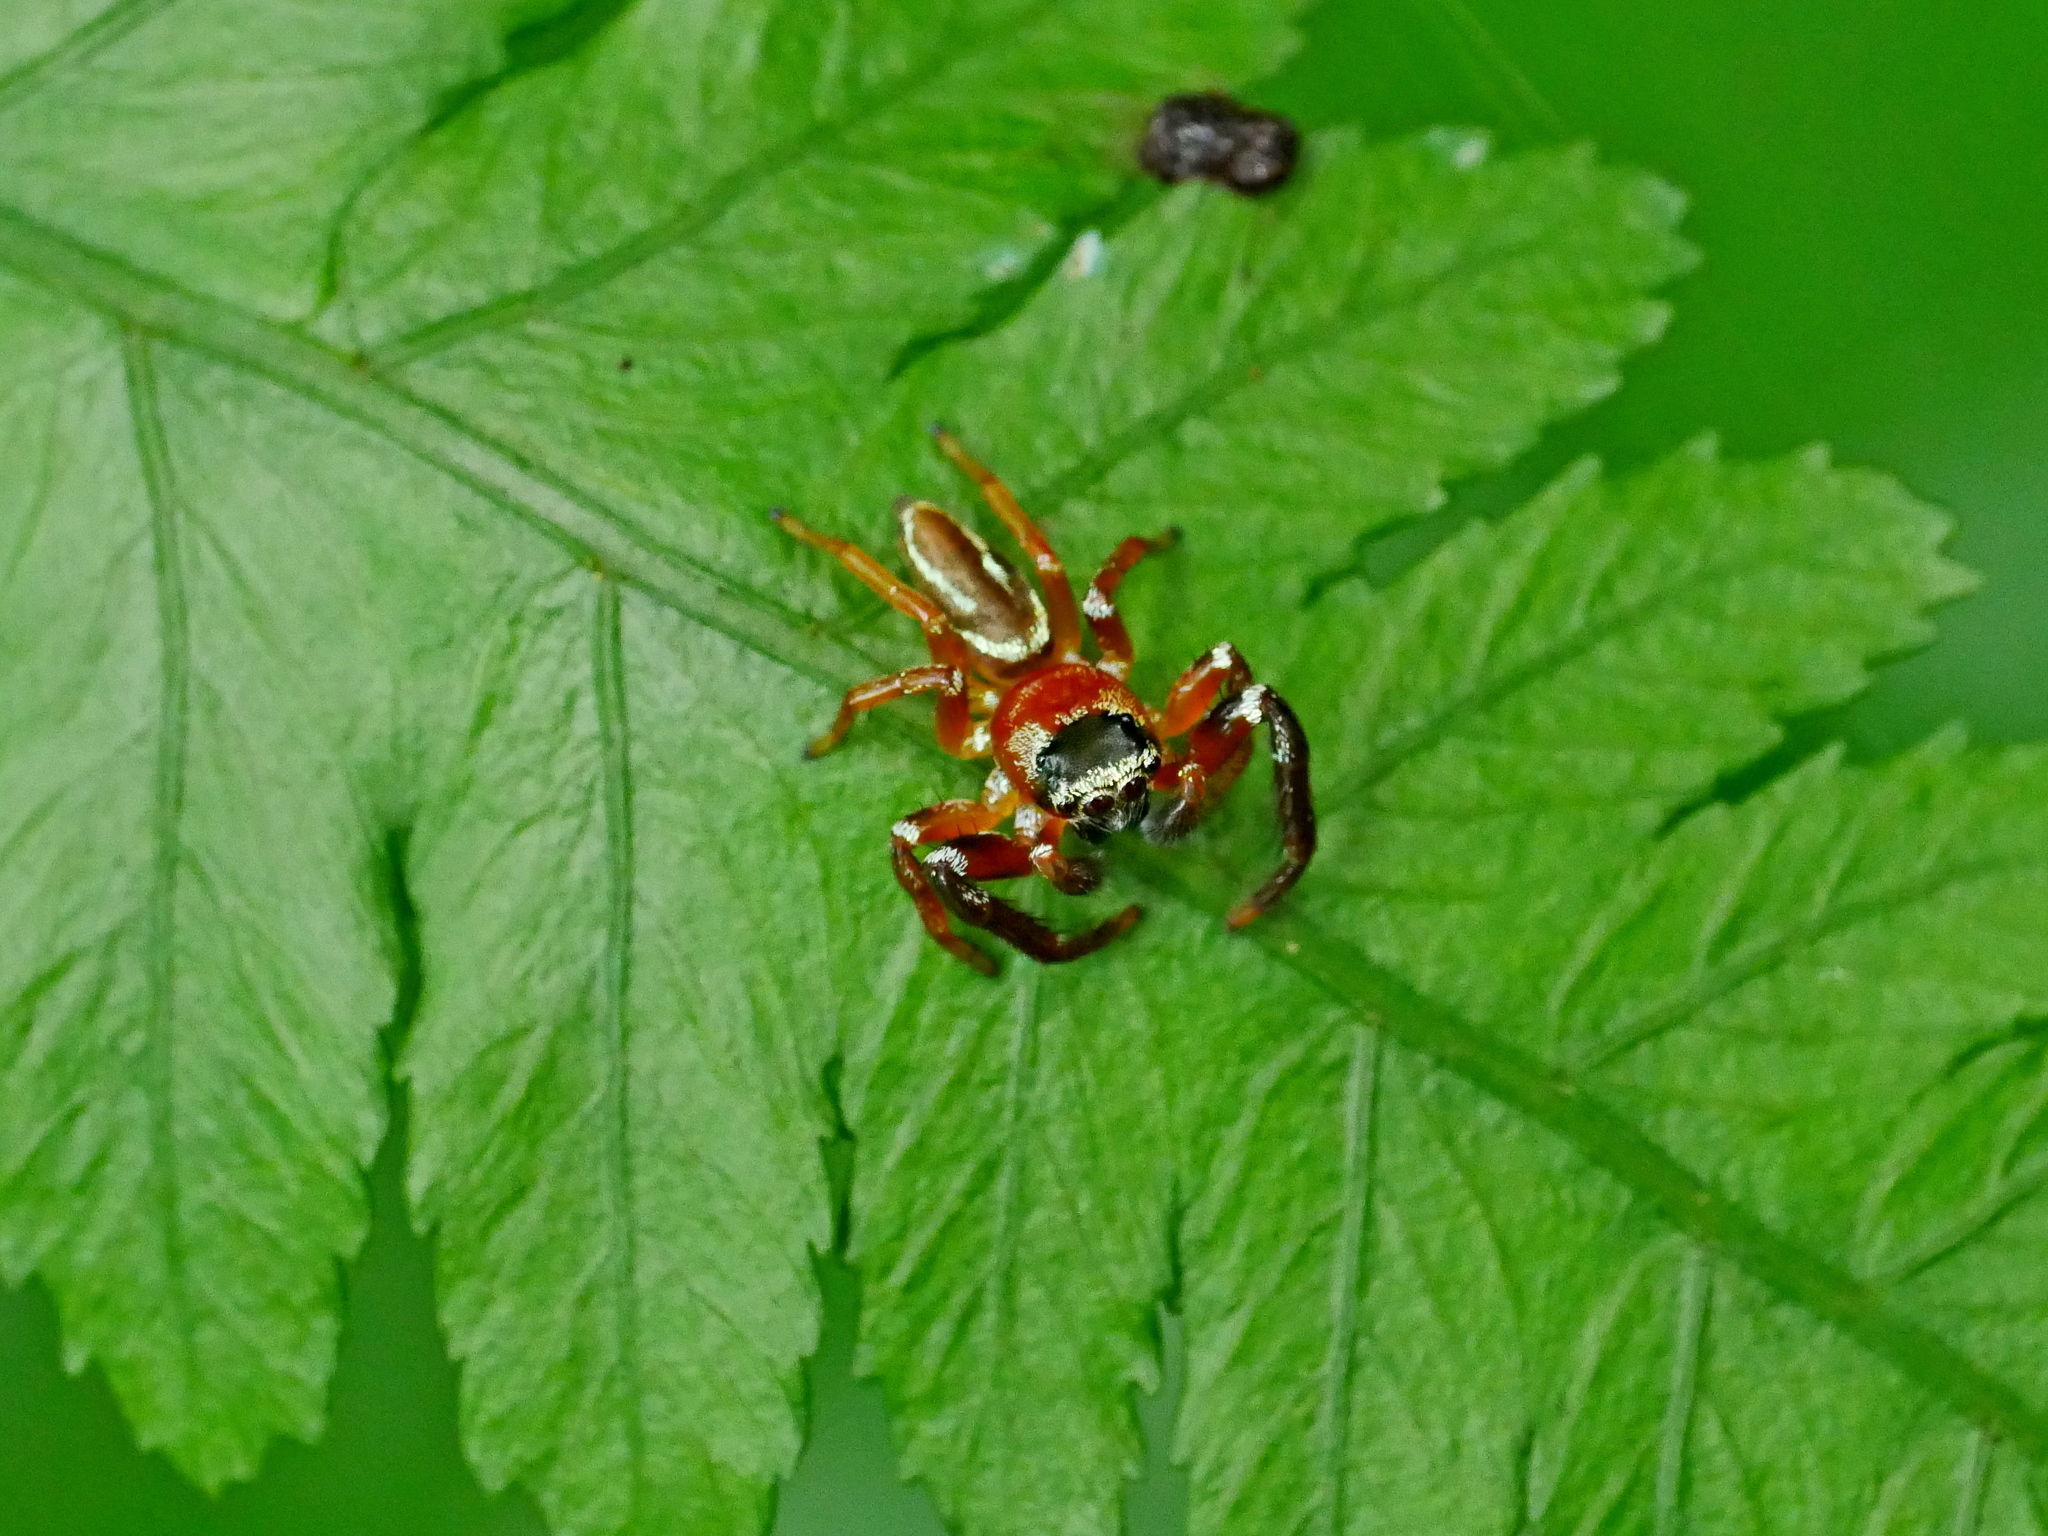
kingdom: Animalia
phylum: Arthropoda
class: Arachnida
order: Araneae
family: Salticidae
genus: Thiania
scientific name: Thiania suboppressa
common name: Jumping spider
